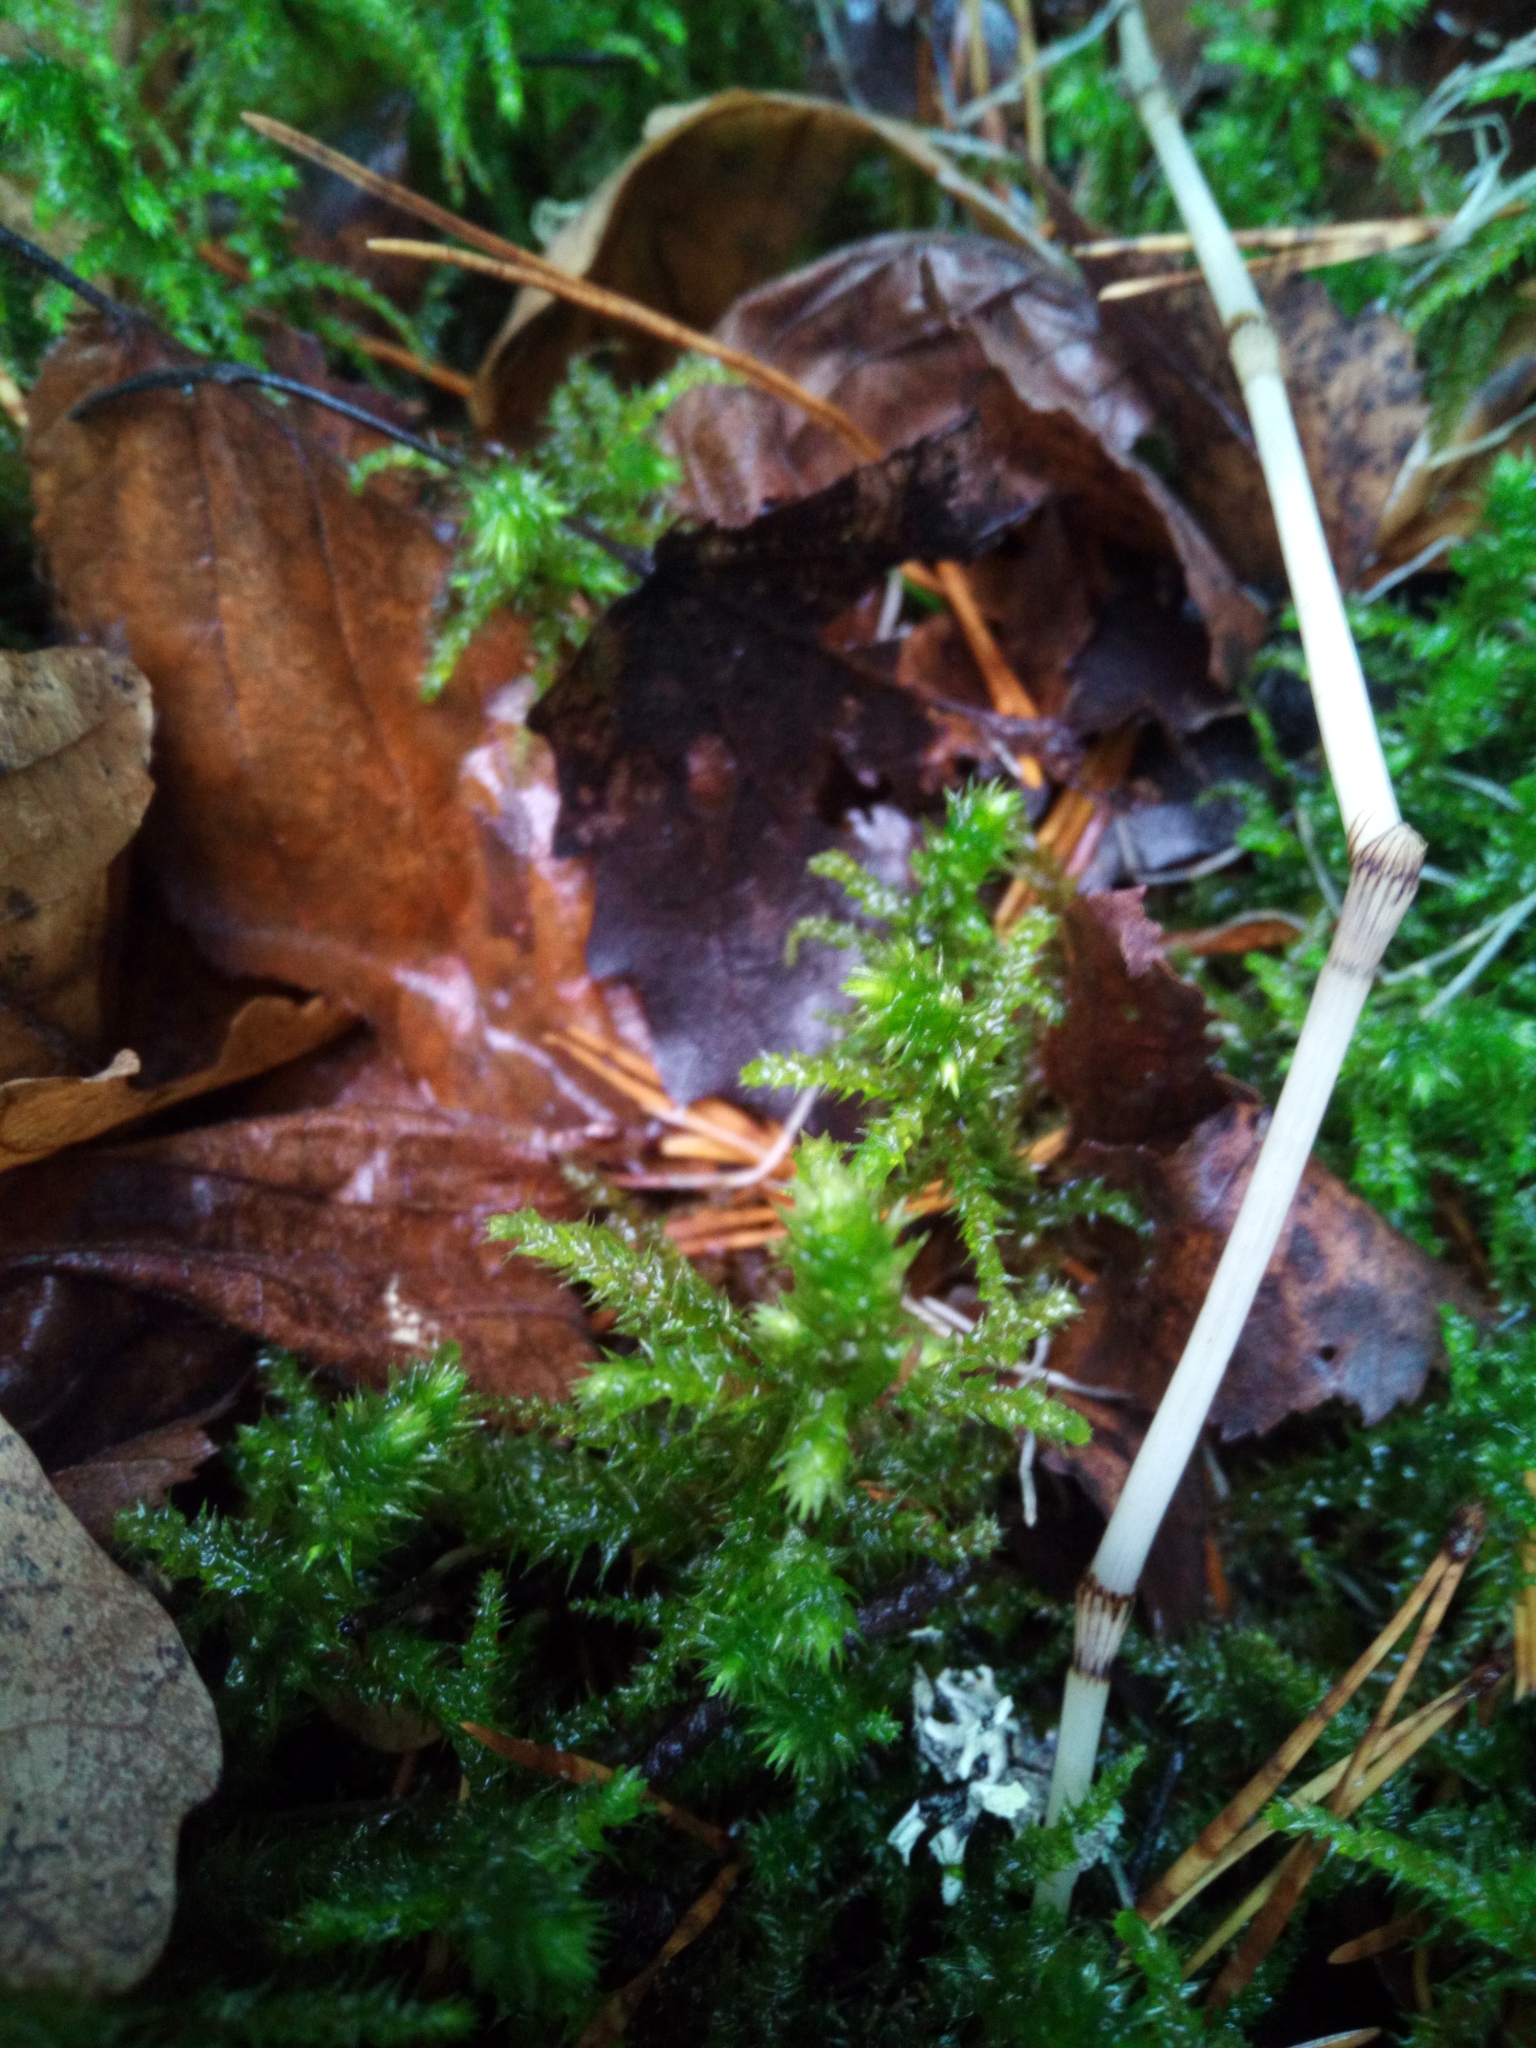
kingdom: Plantae
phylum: Bryophyta
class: Bryopsida
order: Hypnales
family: Hylocomiaceae
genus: Hylocomiadelphus
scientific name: Hylocomiadelphus triquetrus
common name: Rough goose neck moss
